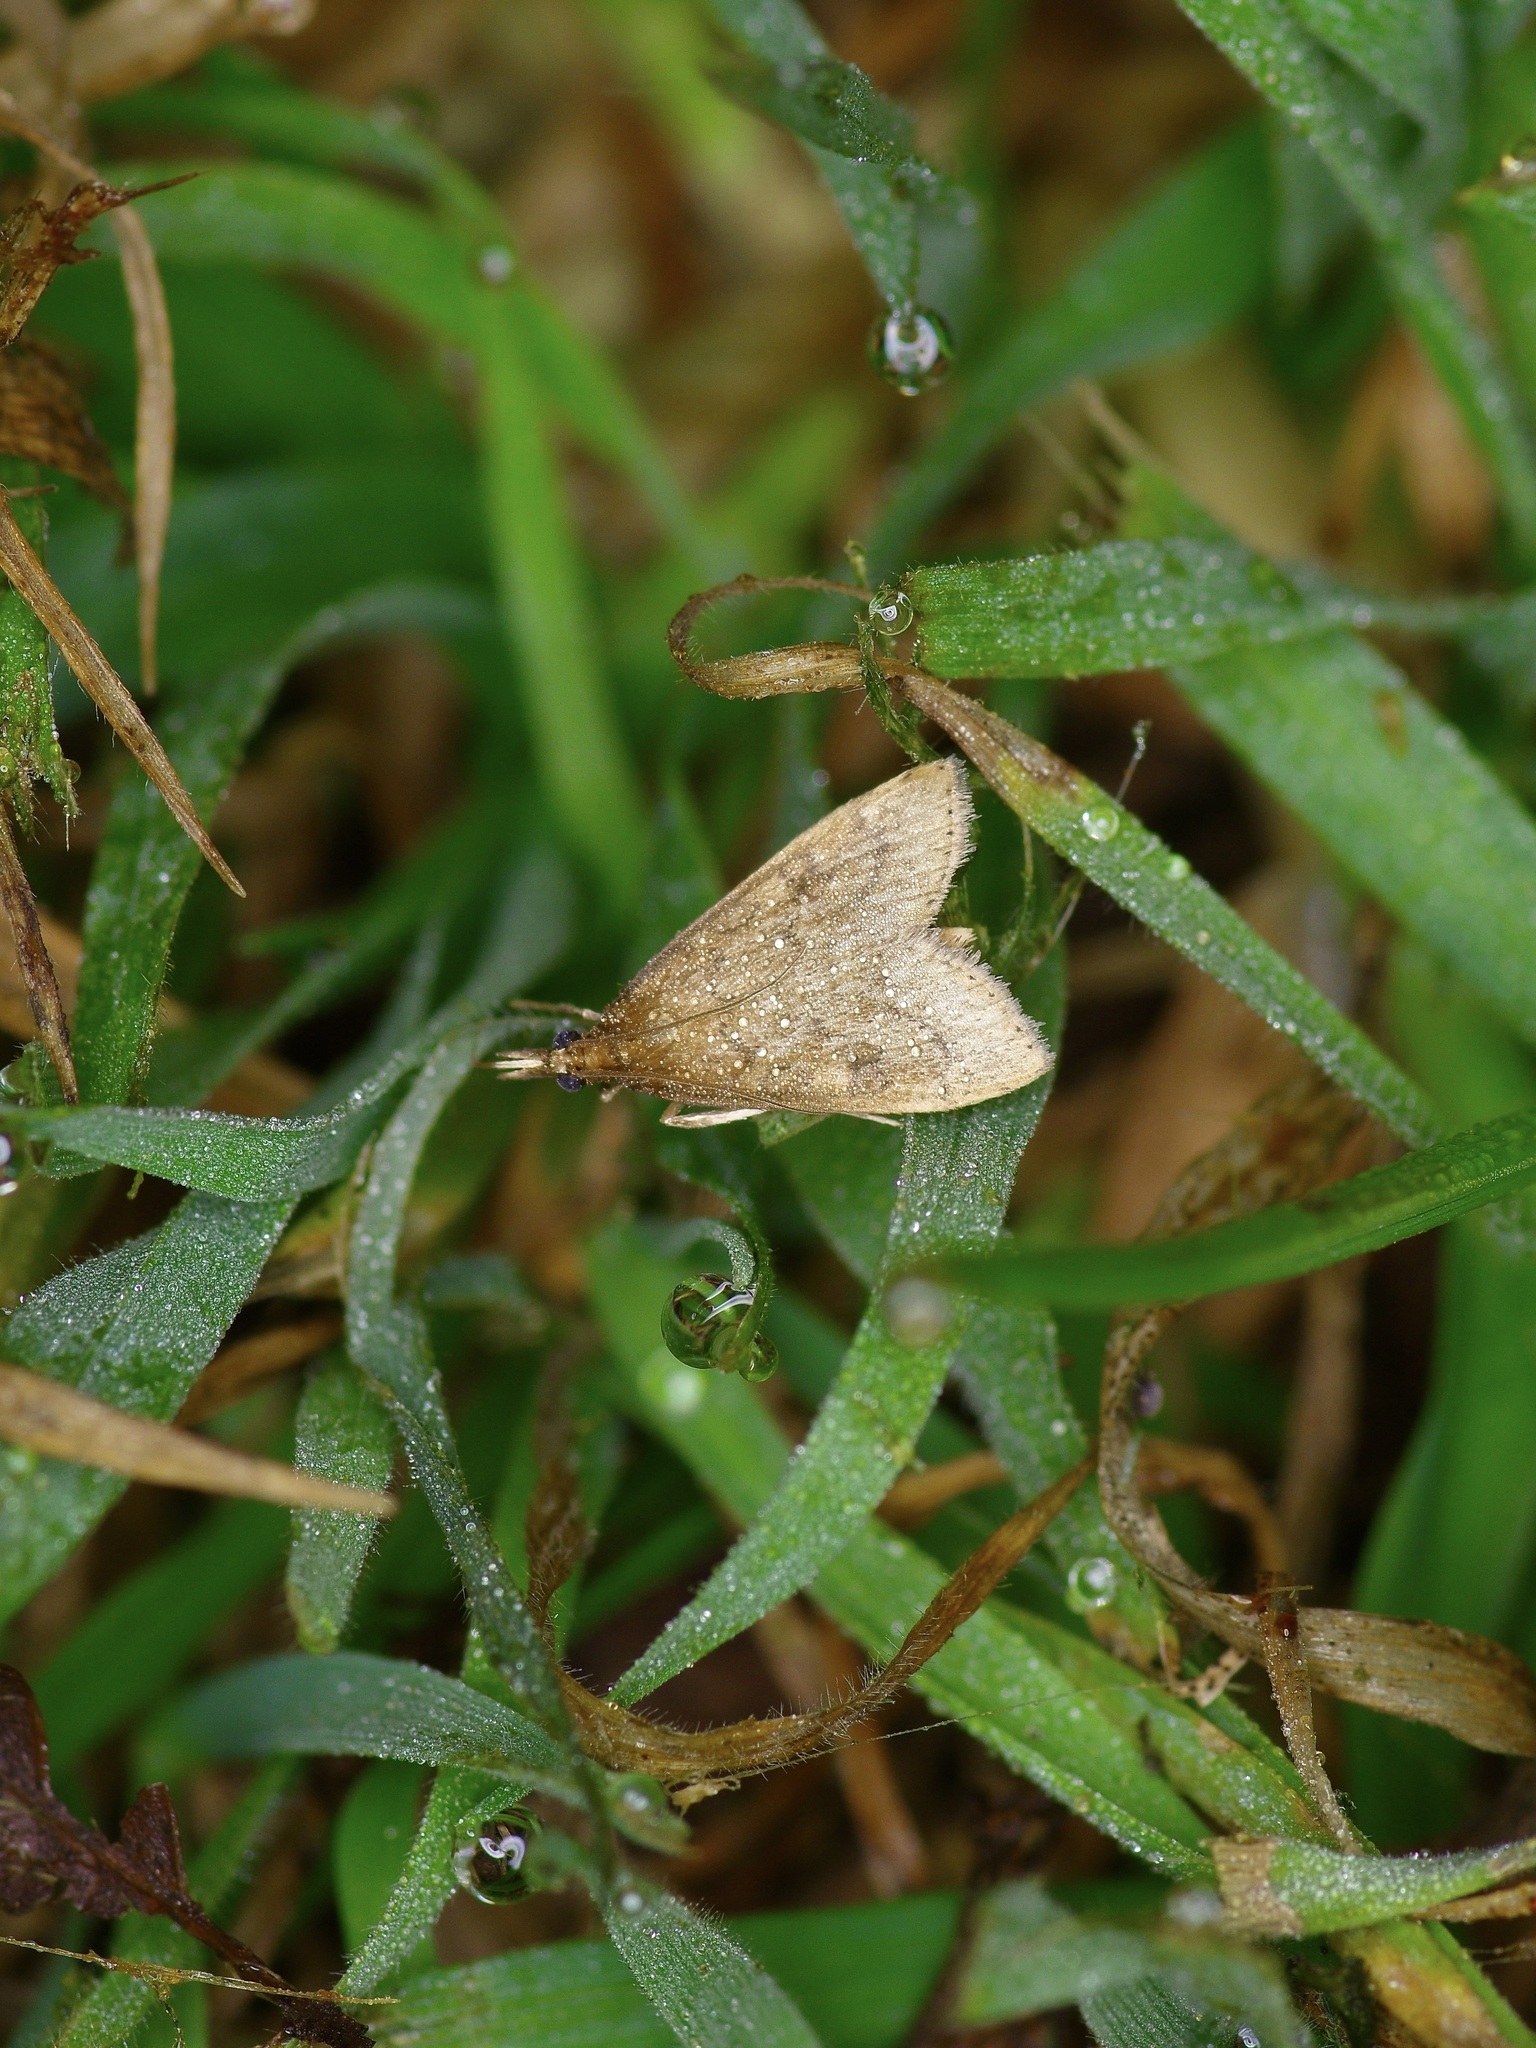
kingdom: Animalia
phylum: Arthropoda
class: Insecta
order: Lepidoptera
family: Crambidae
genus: Udea
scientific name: Udea rubigalis
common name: Celery leaftier moth
